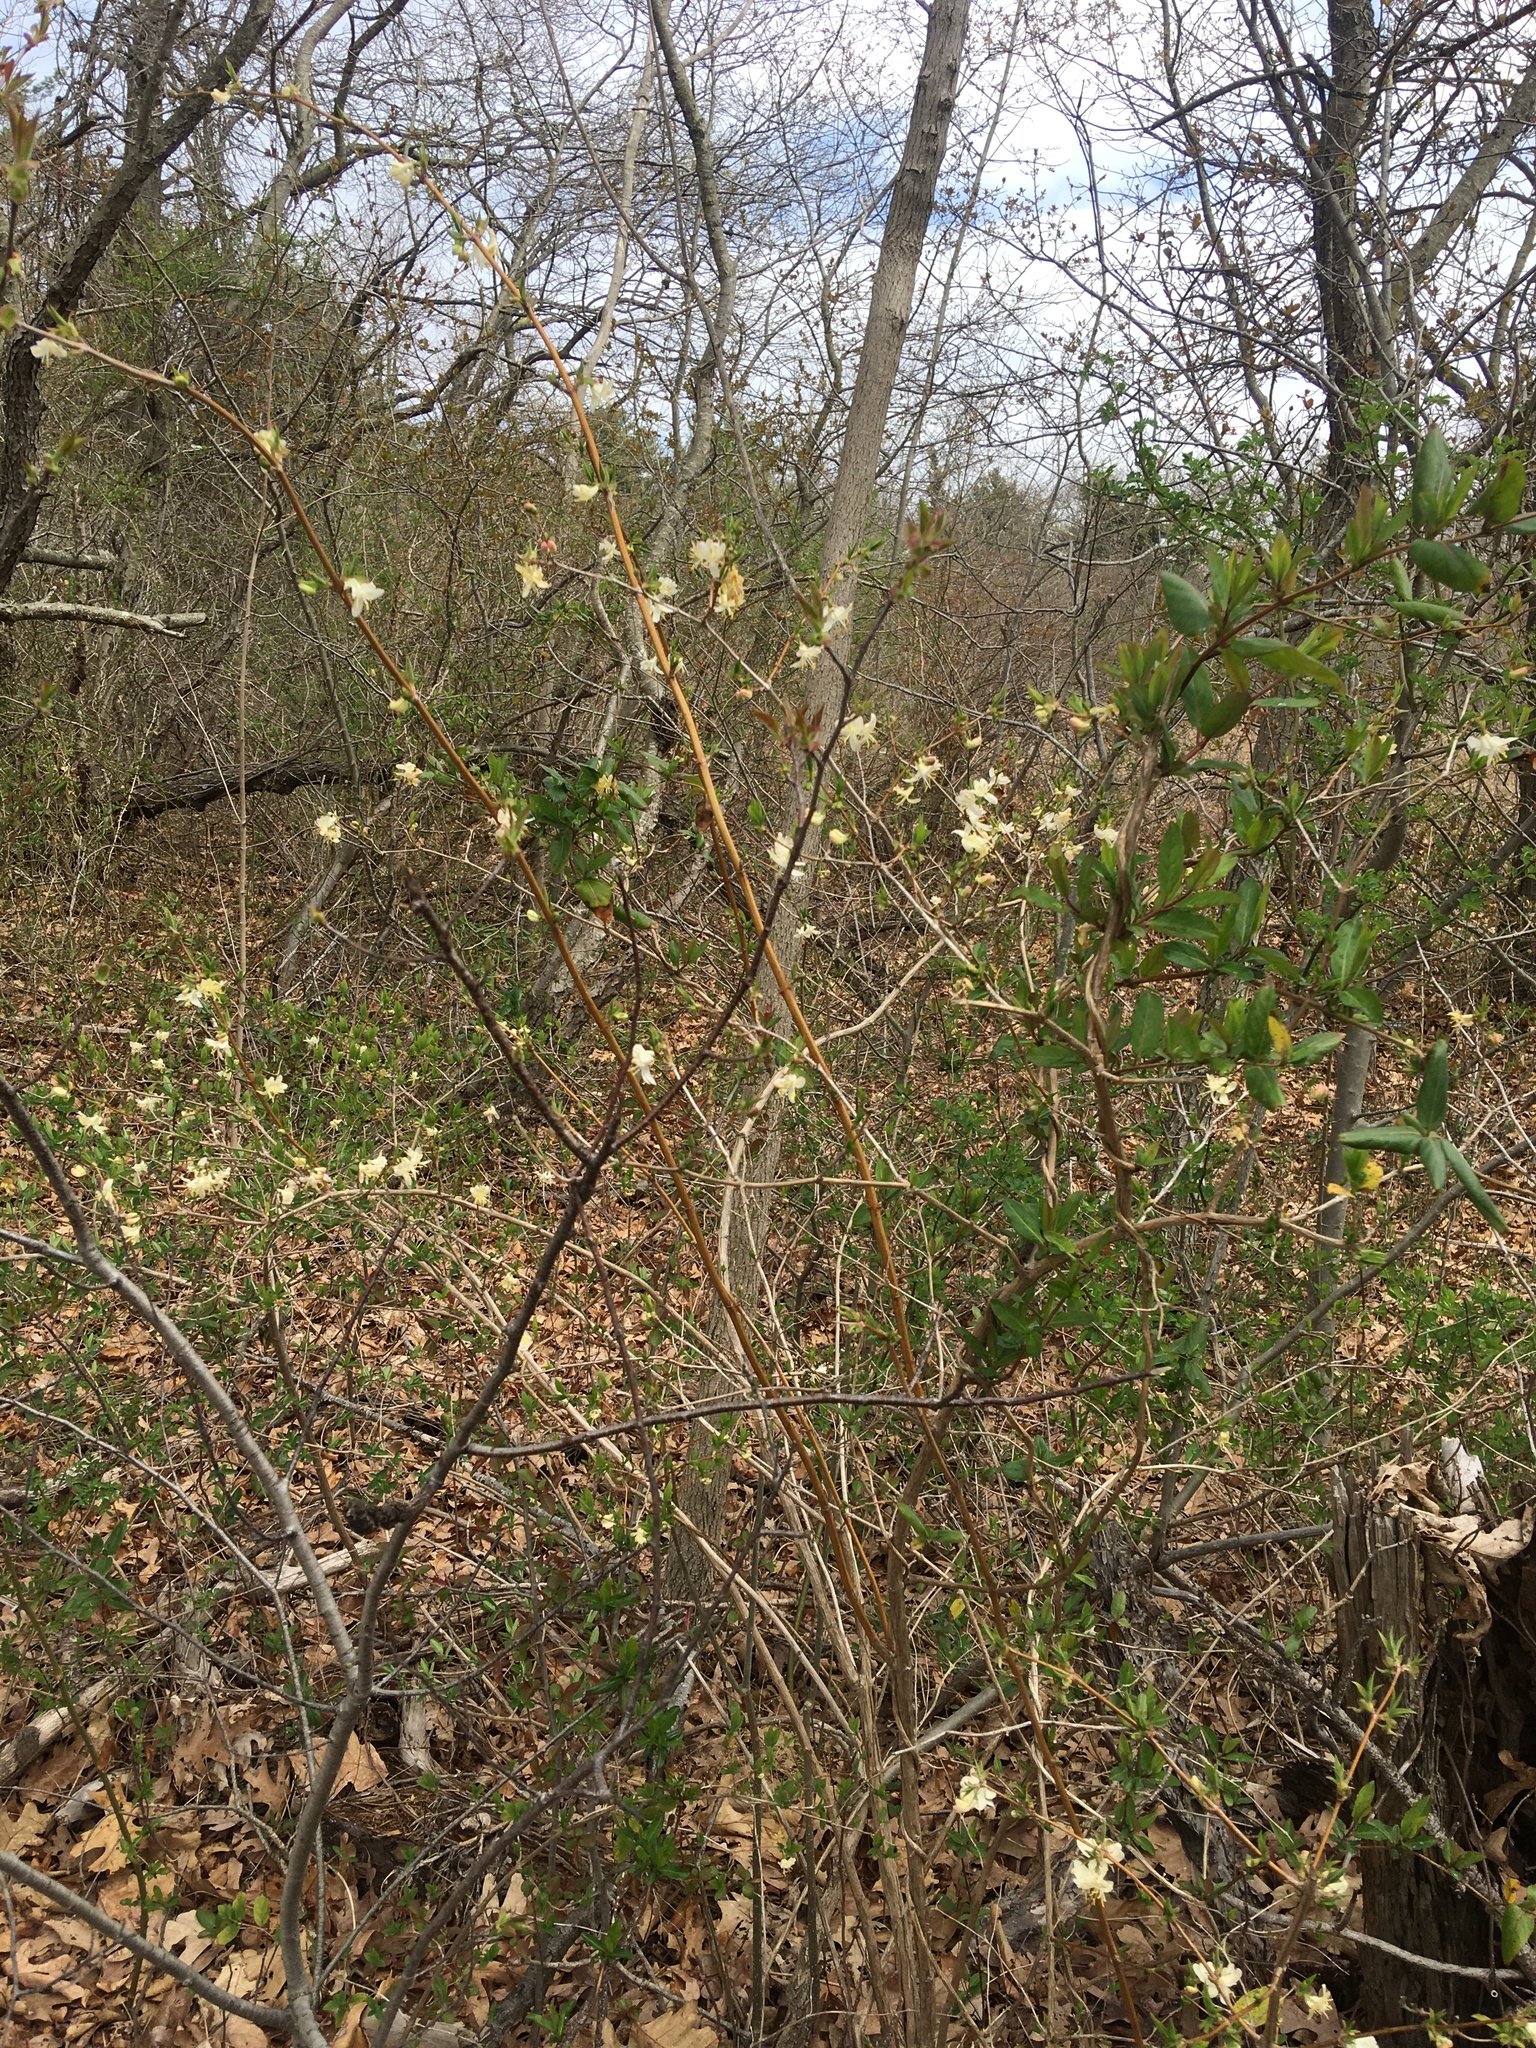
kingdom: Plantae
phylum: Tracheophyta
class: Magnoliopsida
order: Dipsacales
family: Caprifoliaceae
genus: Lonicera
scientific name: Lonicera fragrantissima
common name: Fragrant honeysuckle
